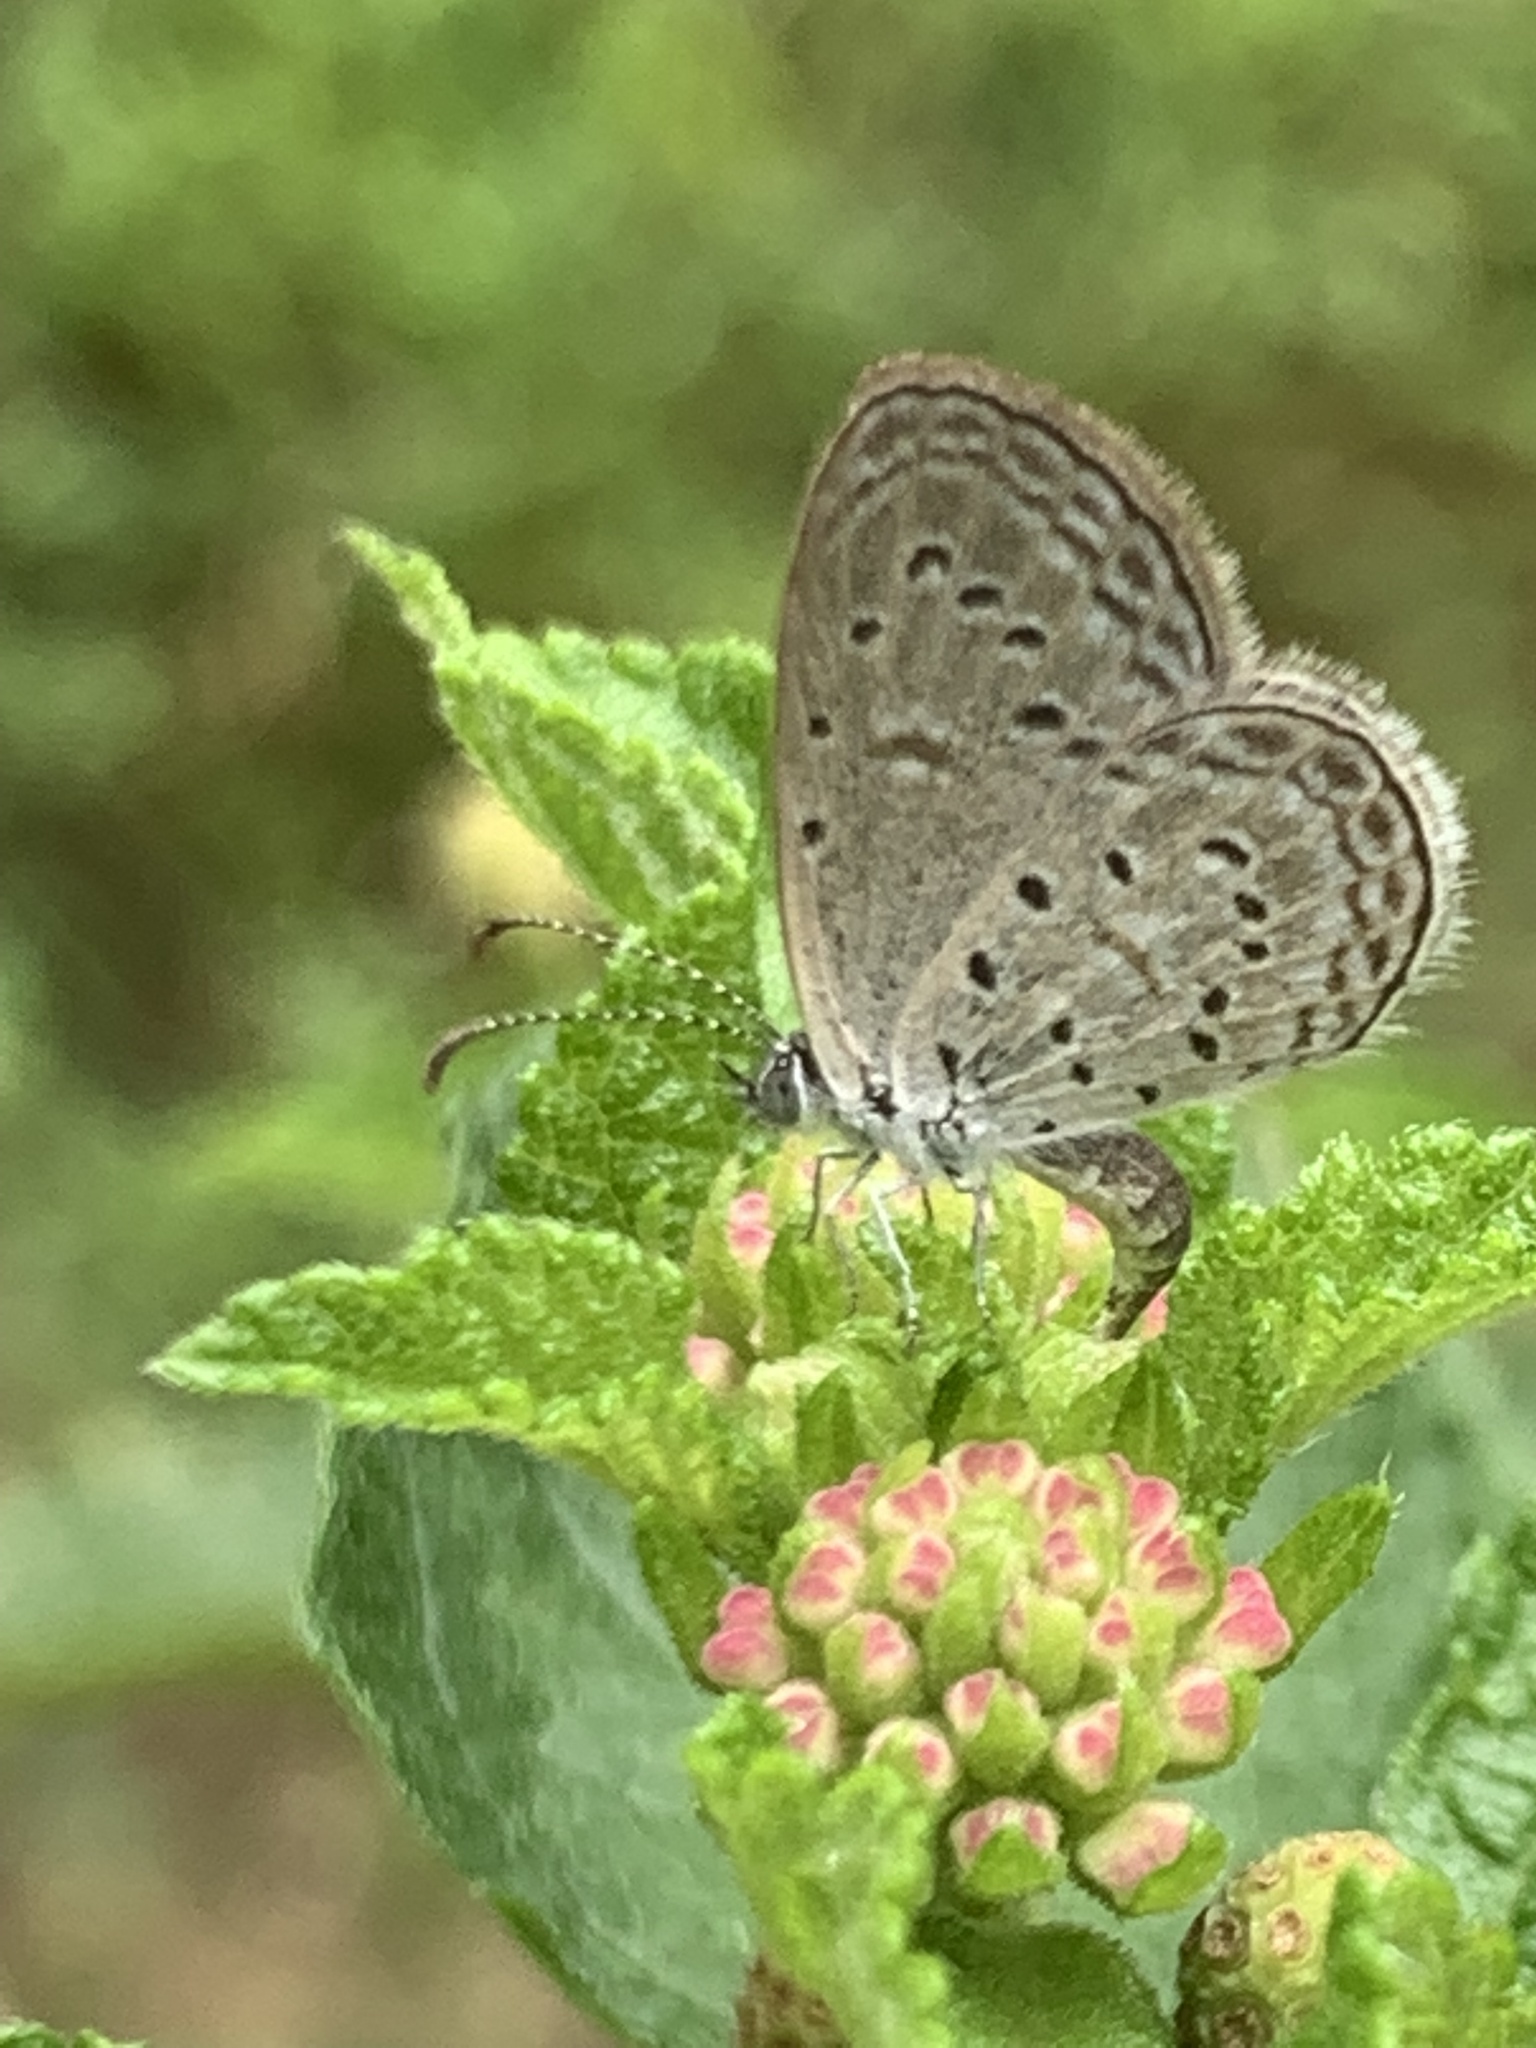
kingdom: Animalia
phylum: Arthropoda
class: Insecta
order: Lepidoptera
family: Lycaenidae
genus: Zizula
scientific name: Zizula hylax
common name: Gaika blue
